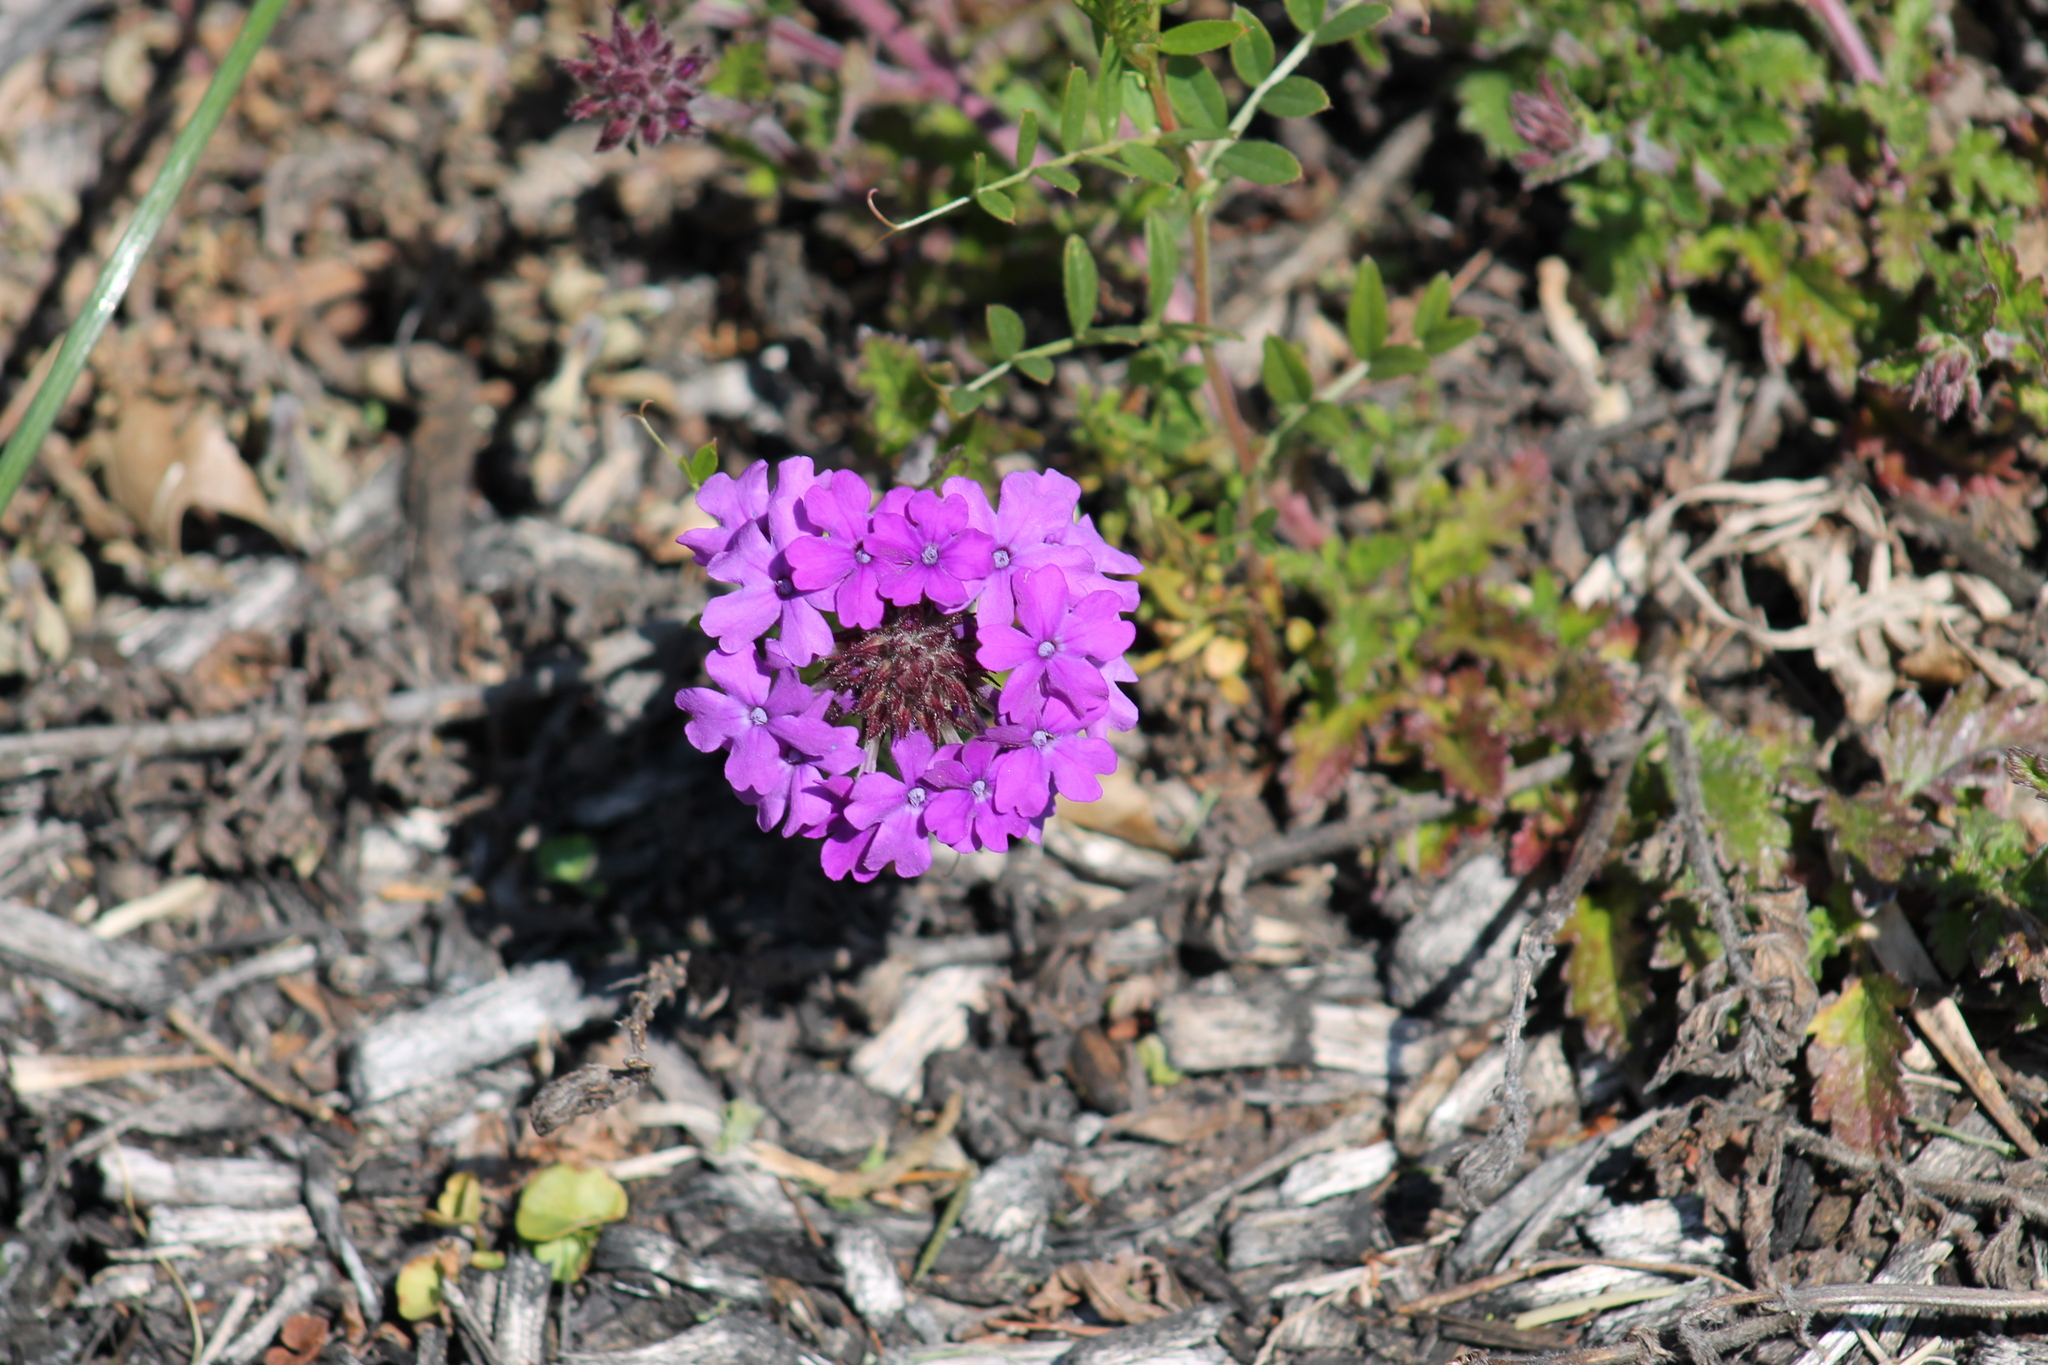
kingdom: Plantae
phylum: Tracheophyta
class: Magnoliopsida
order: Lamiales
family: Verbenaceae
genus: Verbena
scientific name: Verbena canadensis
